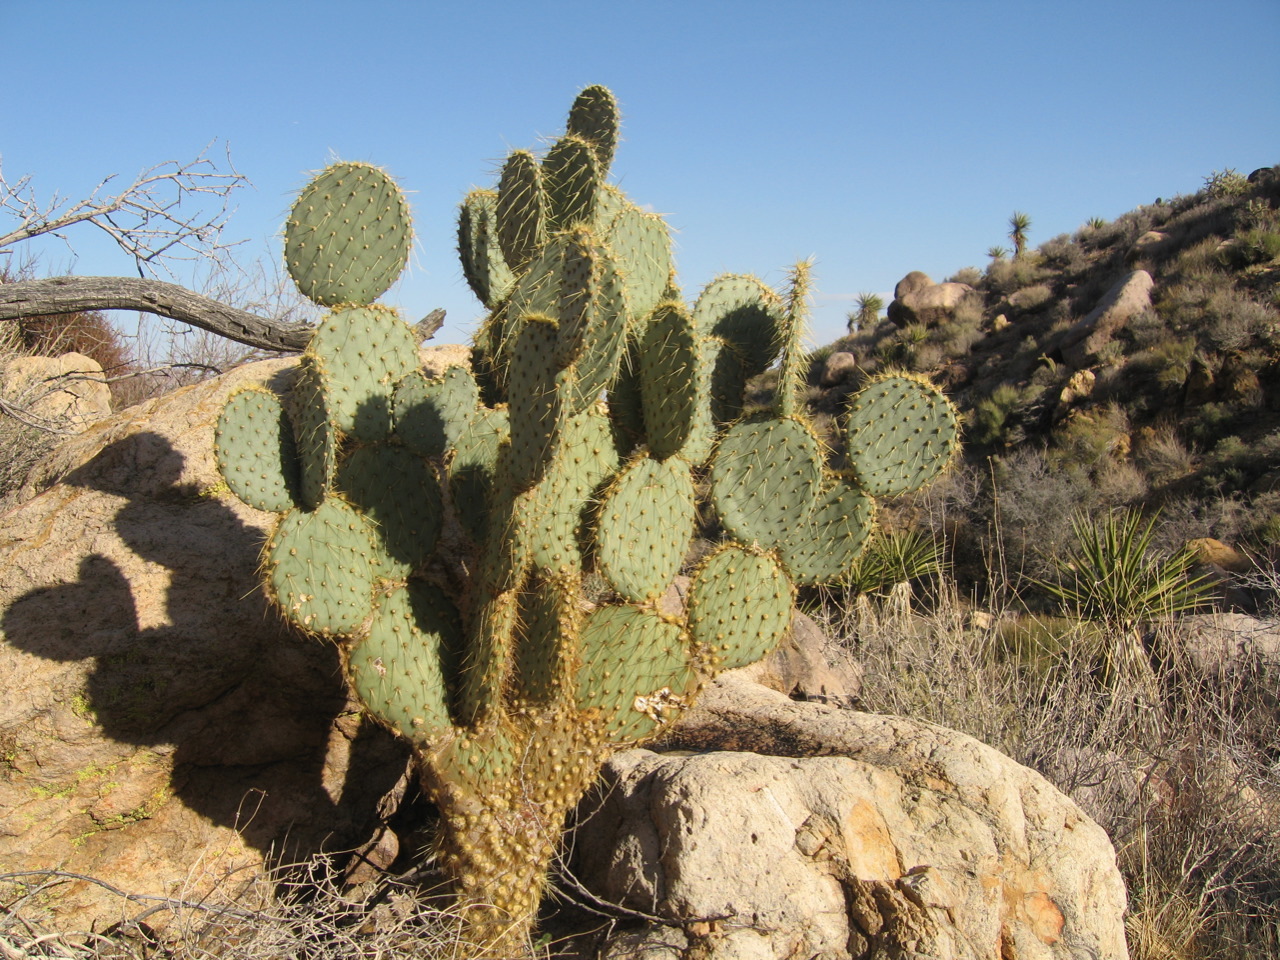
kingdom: Plantae
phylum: Tracheophyta
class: Magnoliopsida
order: Caryophyllales
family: Cactaceae
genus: Opuntia
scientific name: Opuntia chlorotica
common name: Dollar-joint prickly-pear
